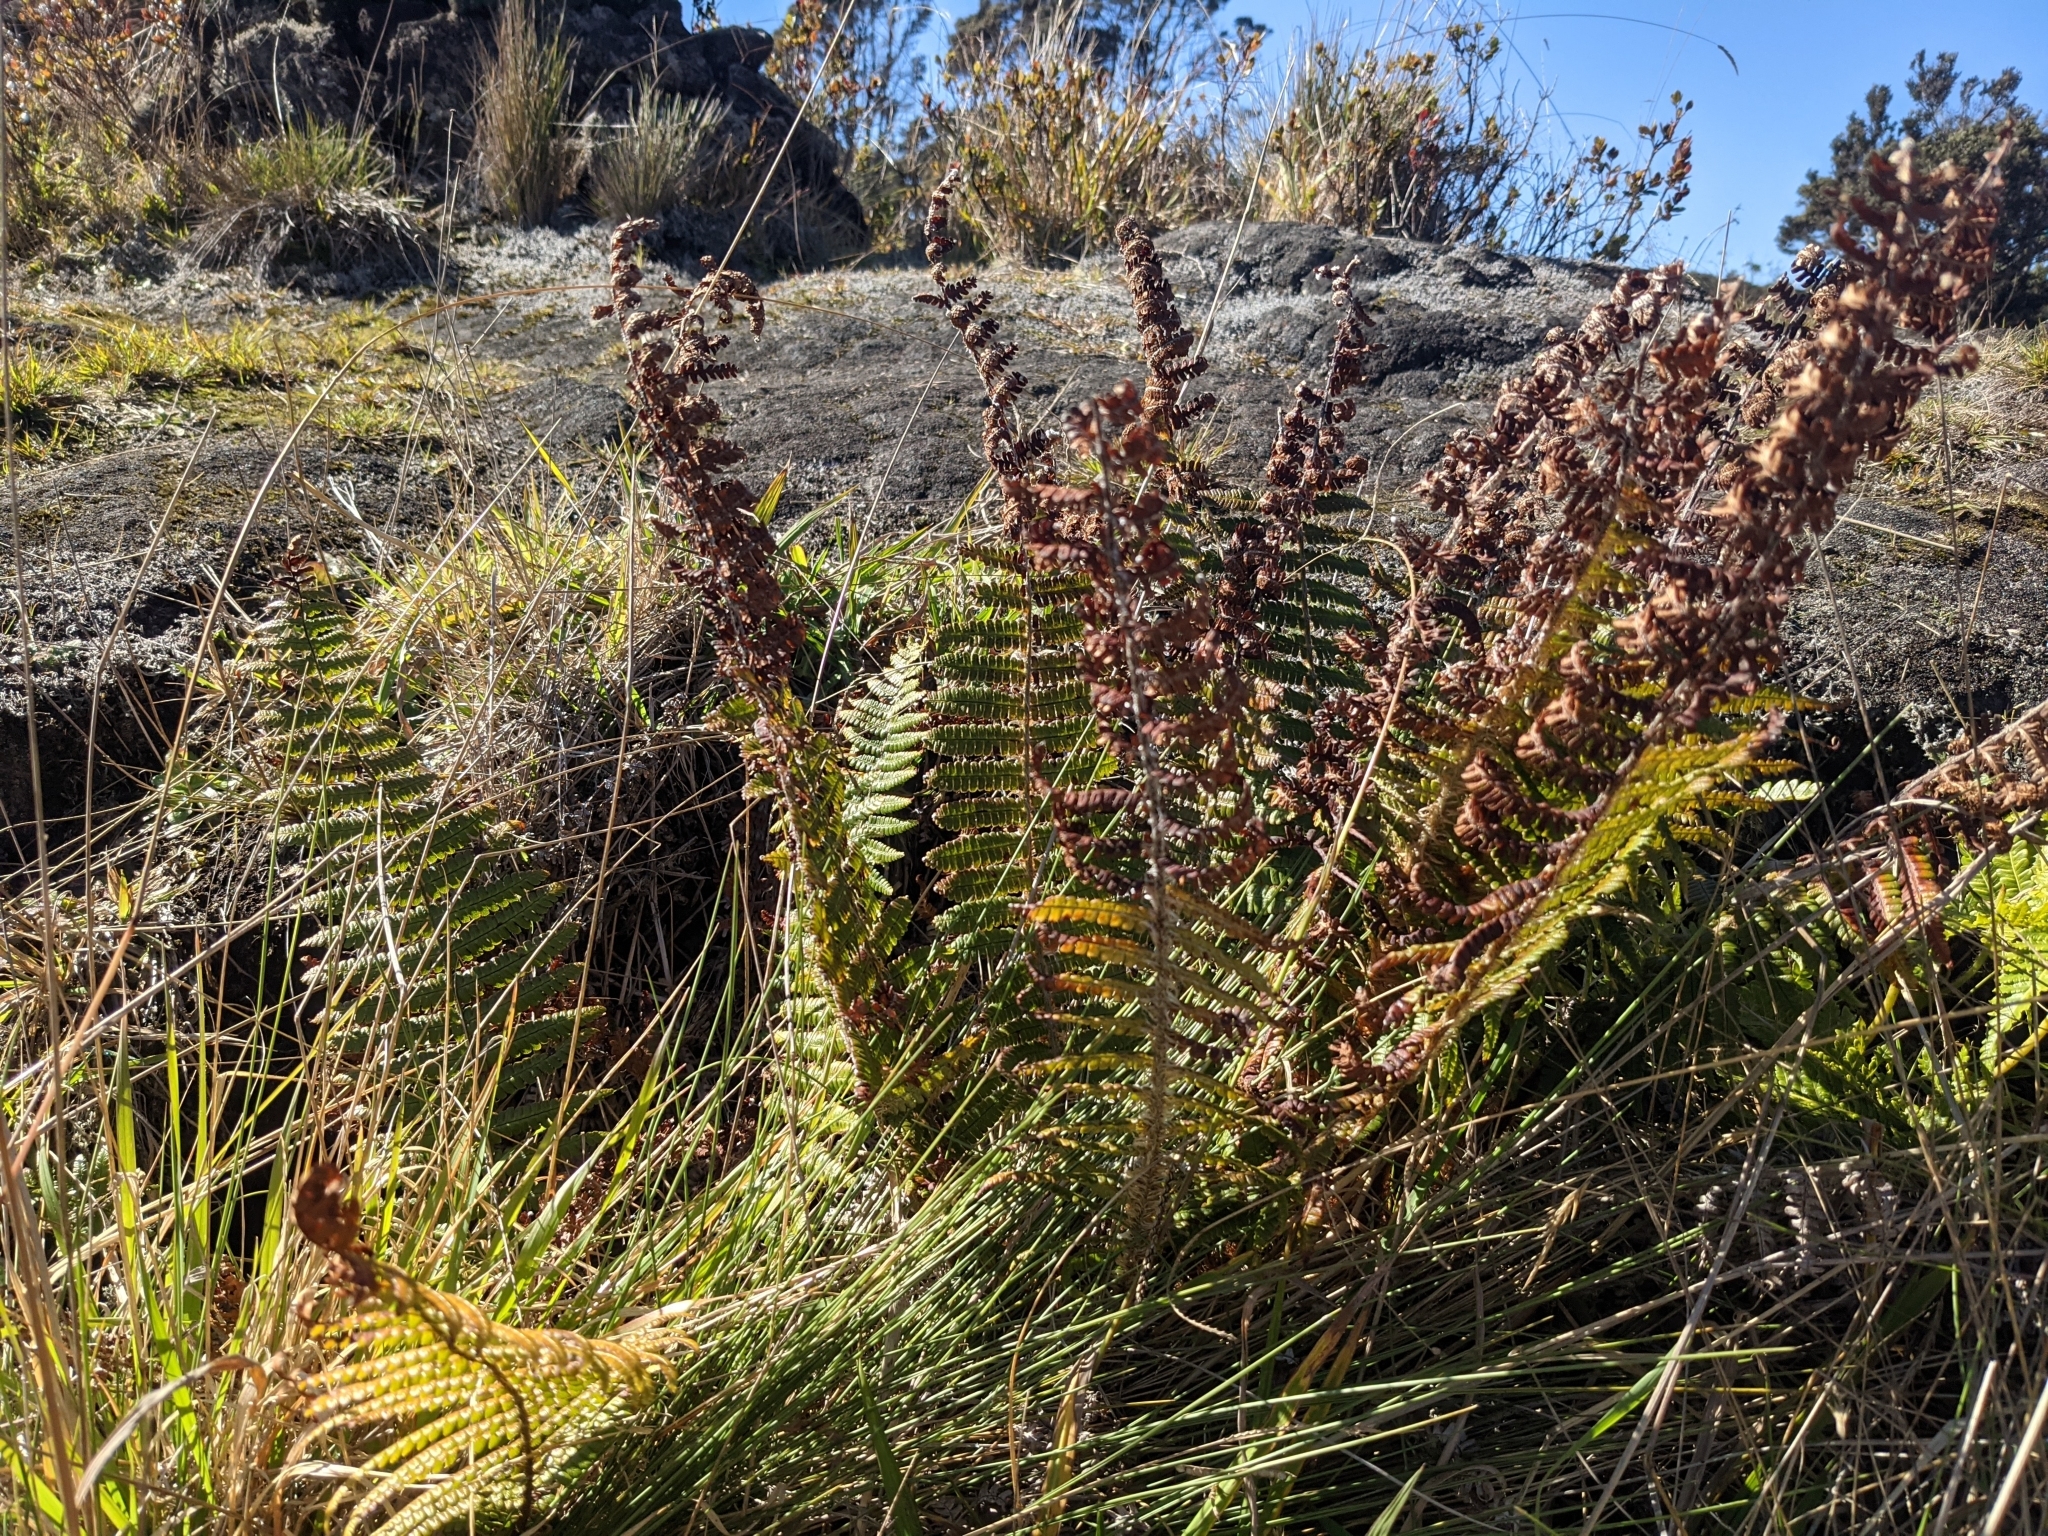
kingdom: Plantae
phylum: Tracheophyta
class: Polypodiopsida
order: Polypodiales
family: Dryopteridaceae
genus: Dryopteris
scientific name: Dryopteris wallichiana
